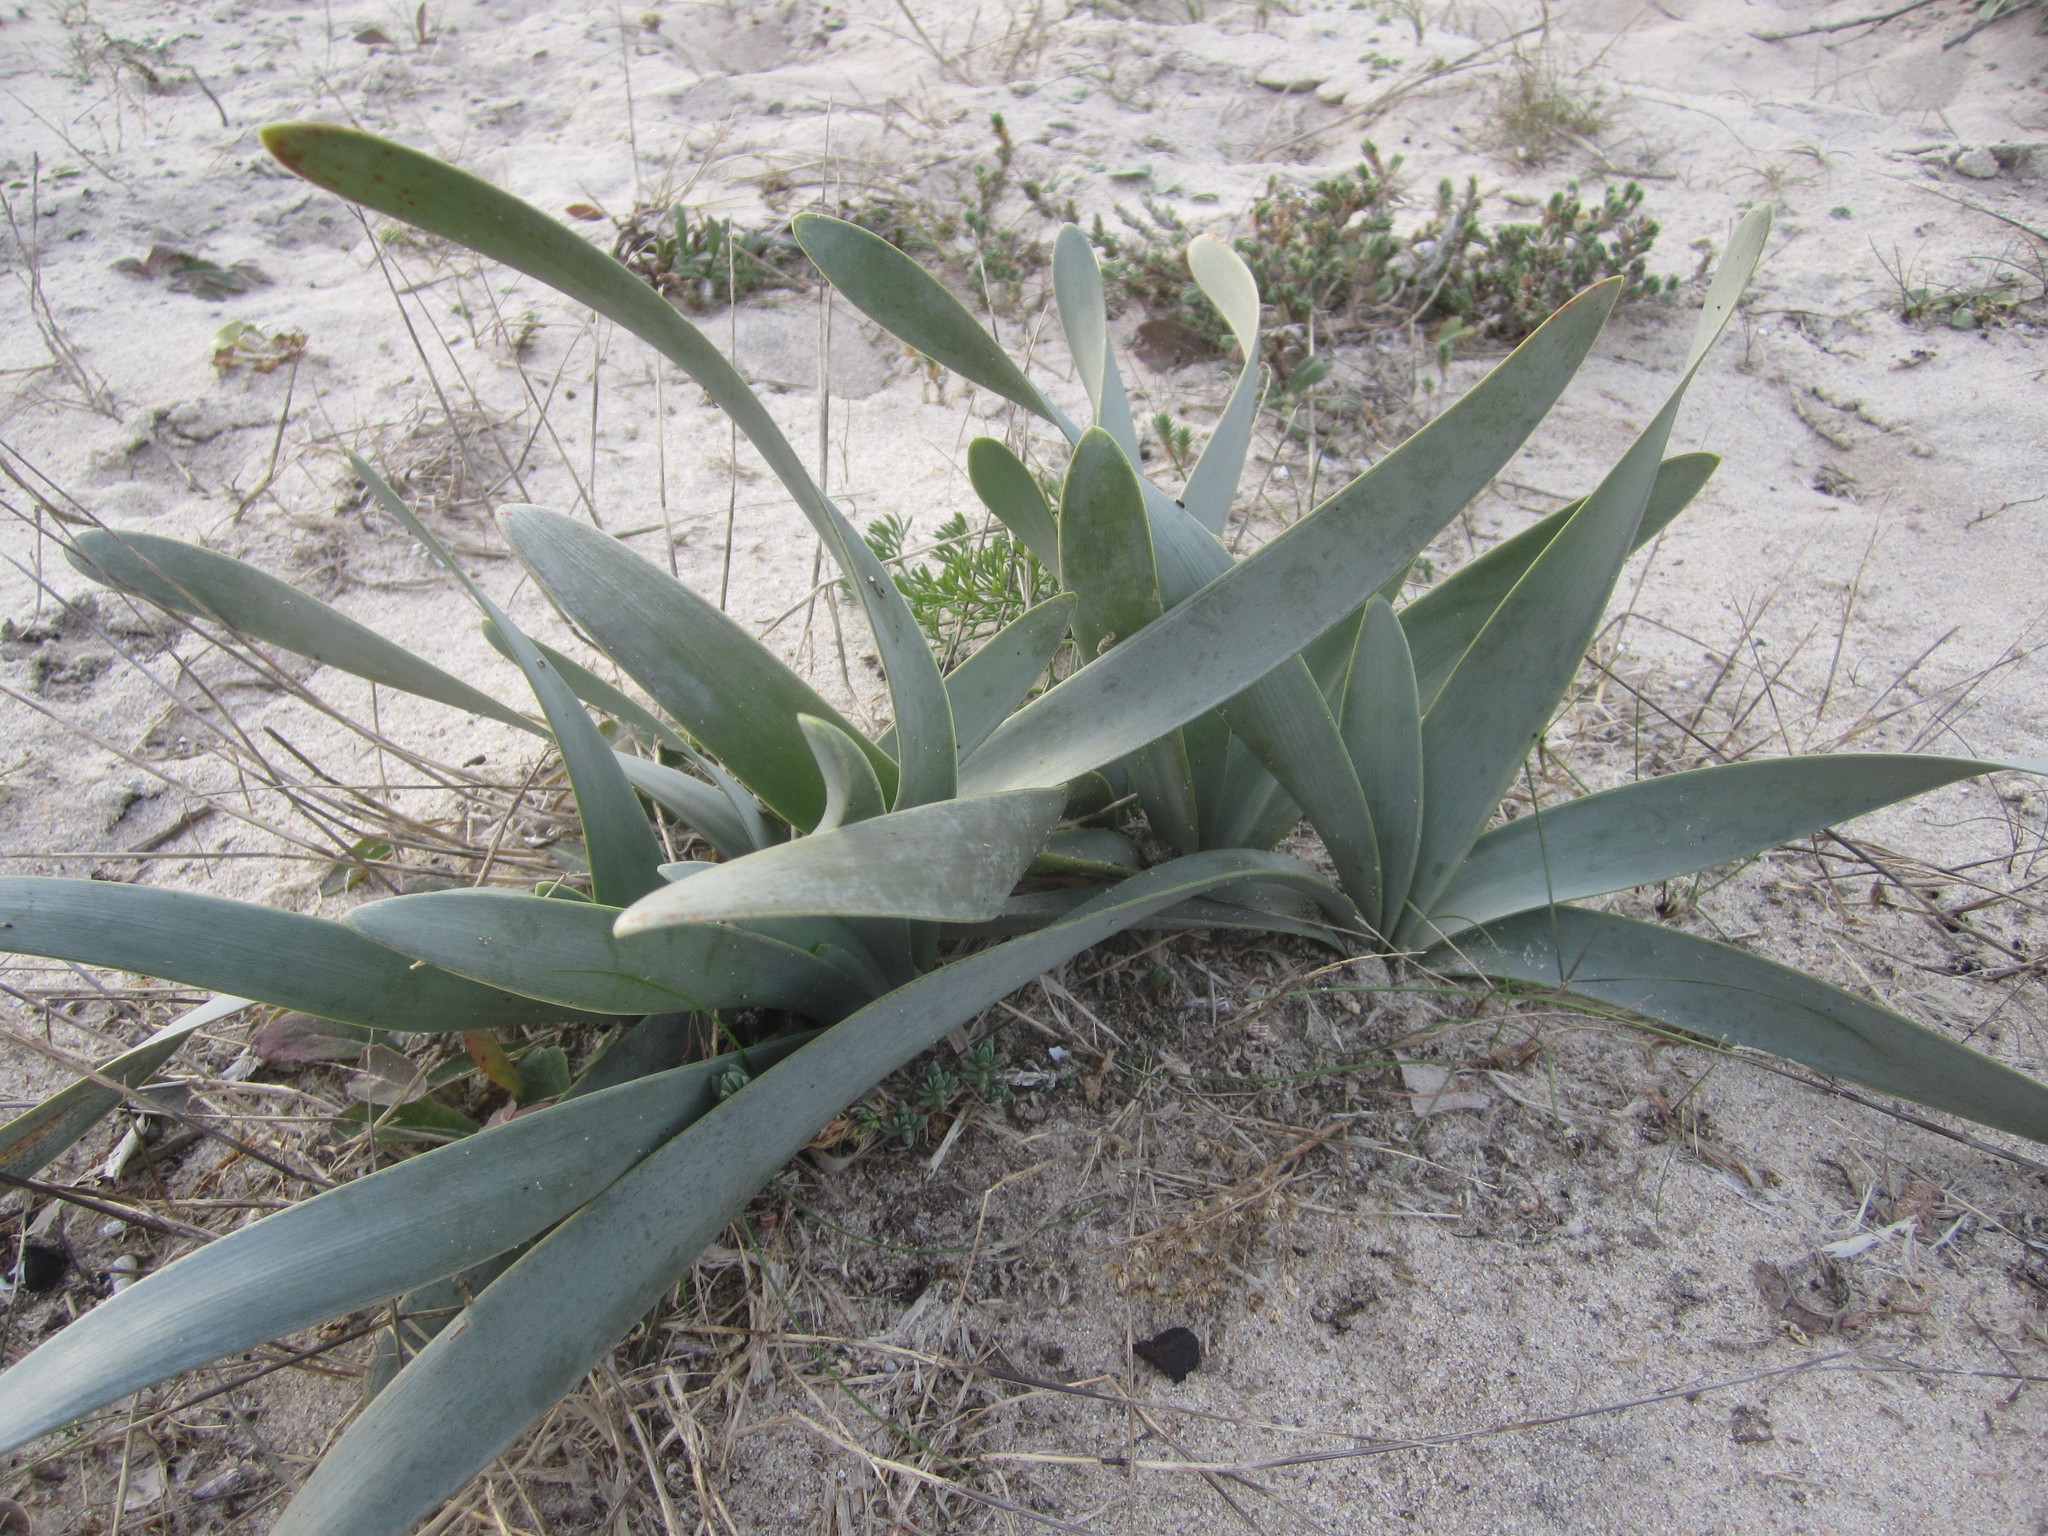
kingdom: Plantae
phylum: Tracheophyta
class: Liliopsida
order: Asparagales
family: Amaryllidaceae
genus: Pancratium
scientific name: Pancratium maritimum
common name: Sea-daffodil
